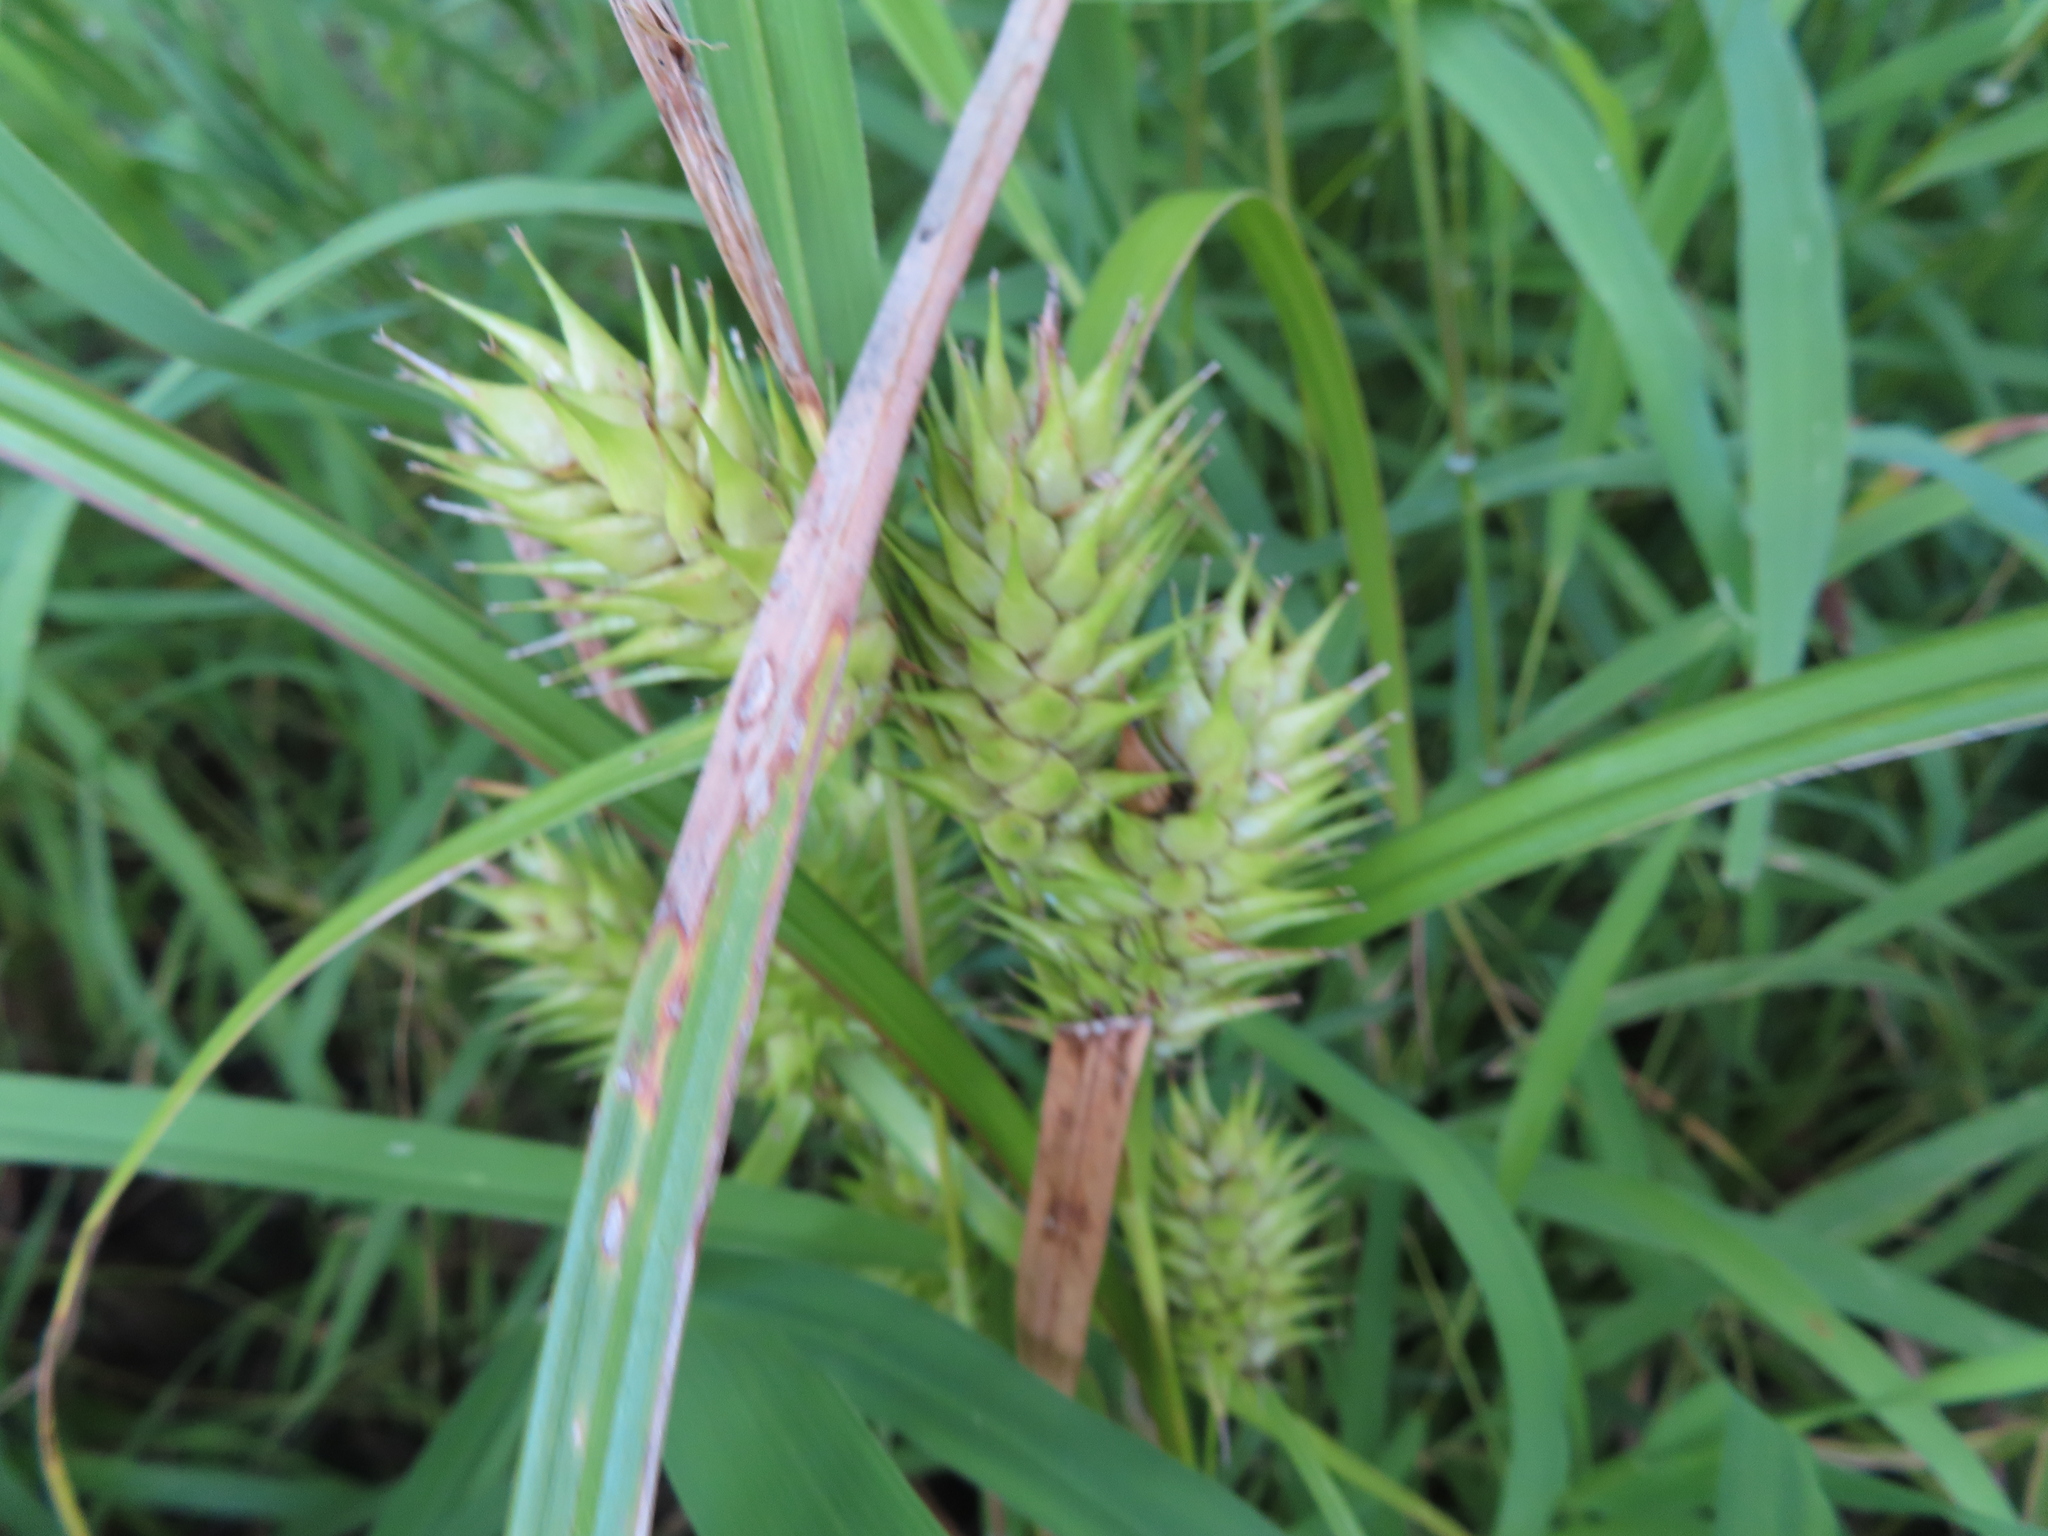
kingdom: Plantae
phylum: Tracheophyta
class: Liliopsida
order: Poales
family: Cyperaceae
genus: Carex
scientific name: Carex lupulina
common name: Hop sedge
